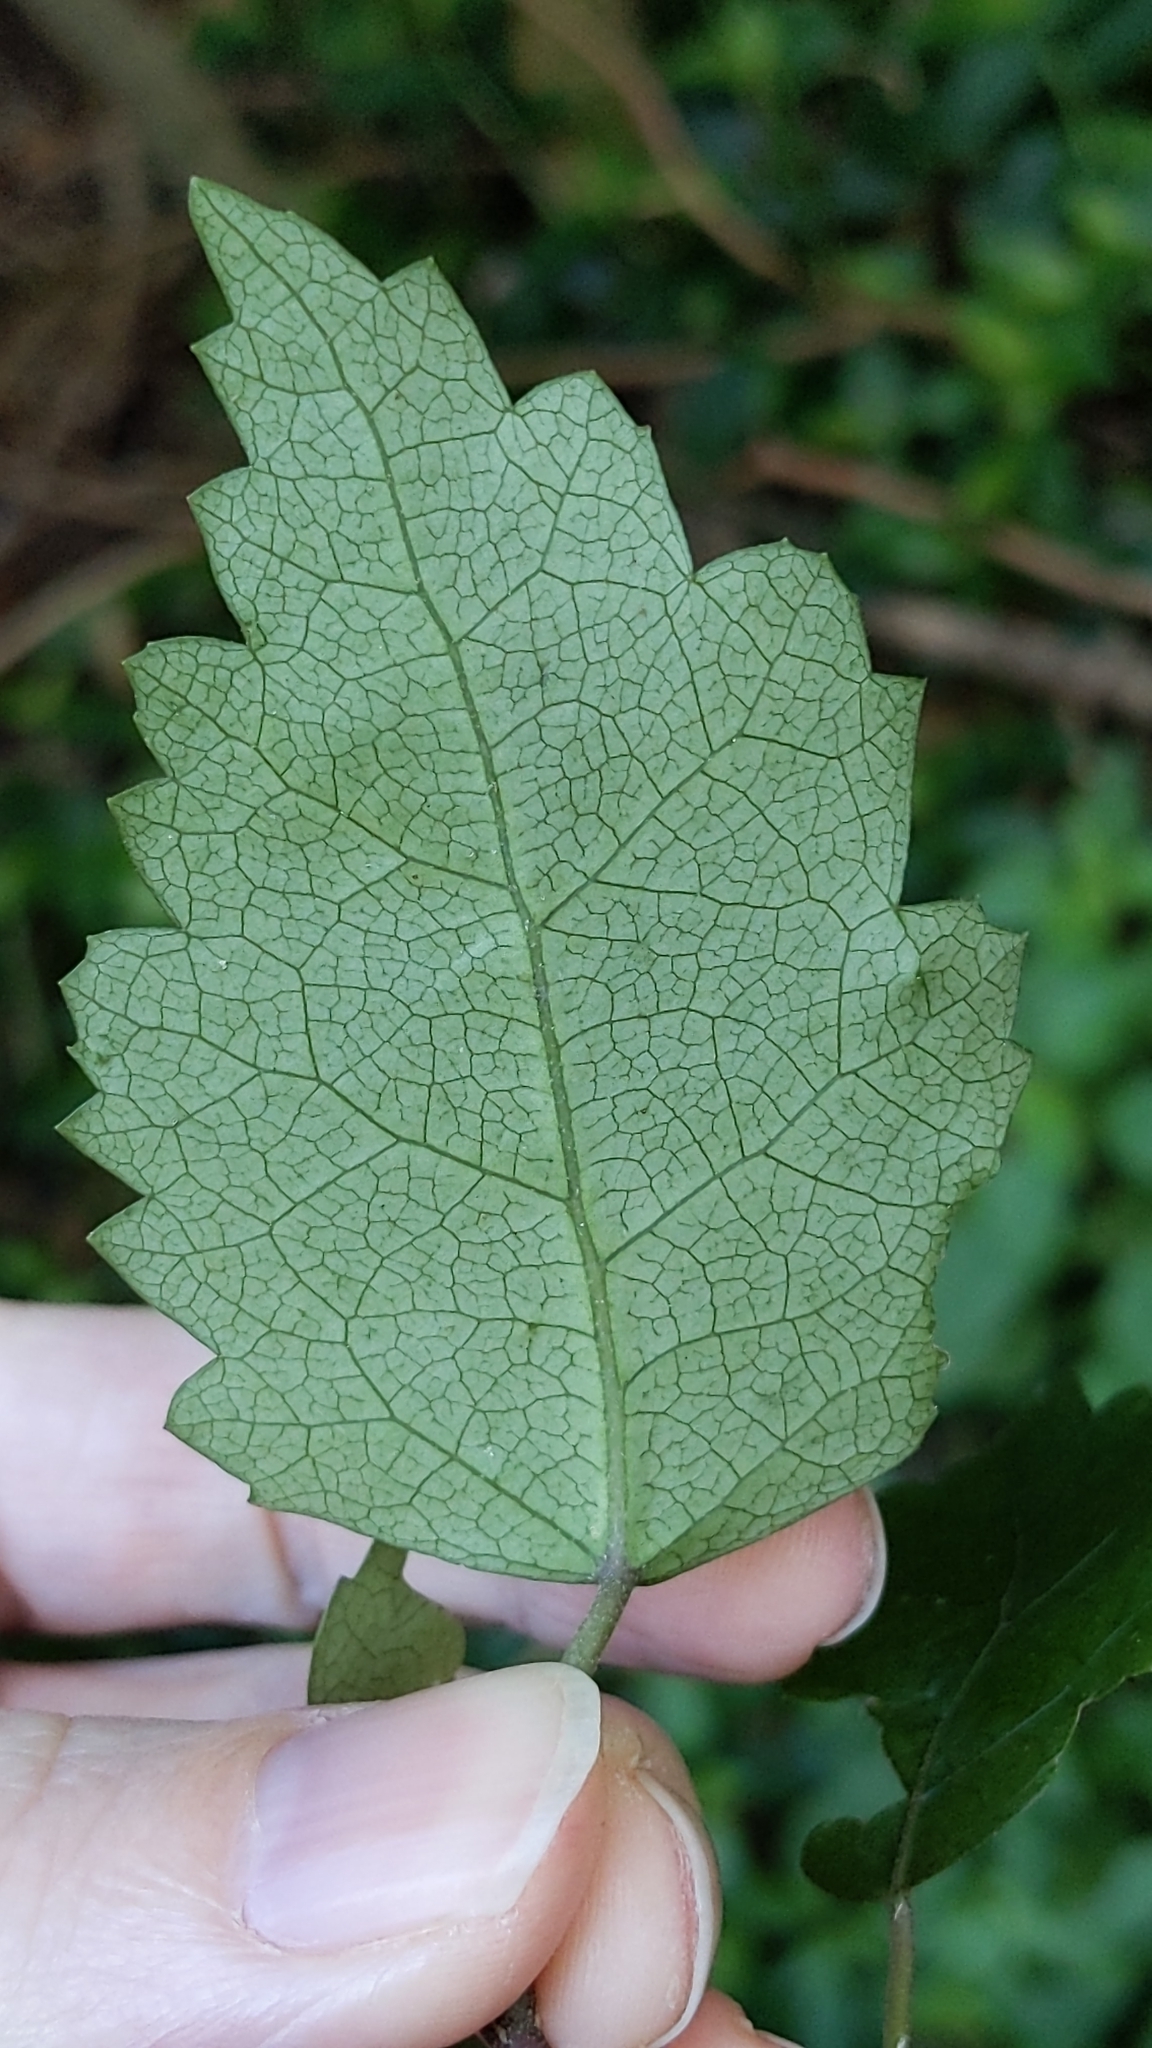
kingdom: Animalia
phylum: Arthropoda
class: Arachnida
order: Trombidiformes
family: Eriophyidae
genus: Eriophyes
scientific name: Eriophyes hoheriae
